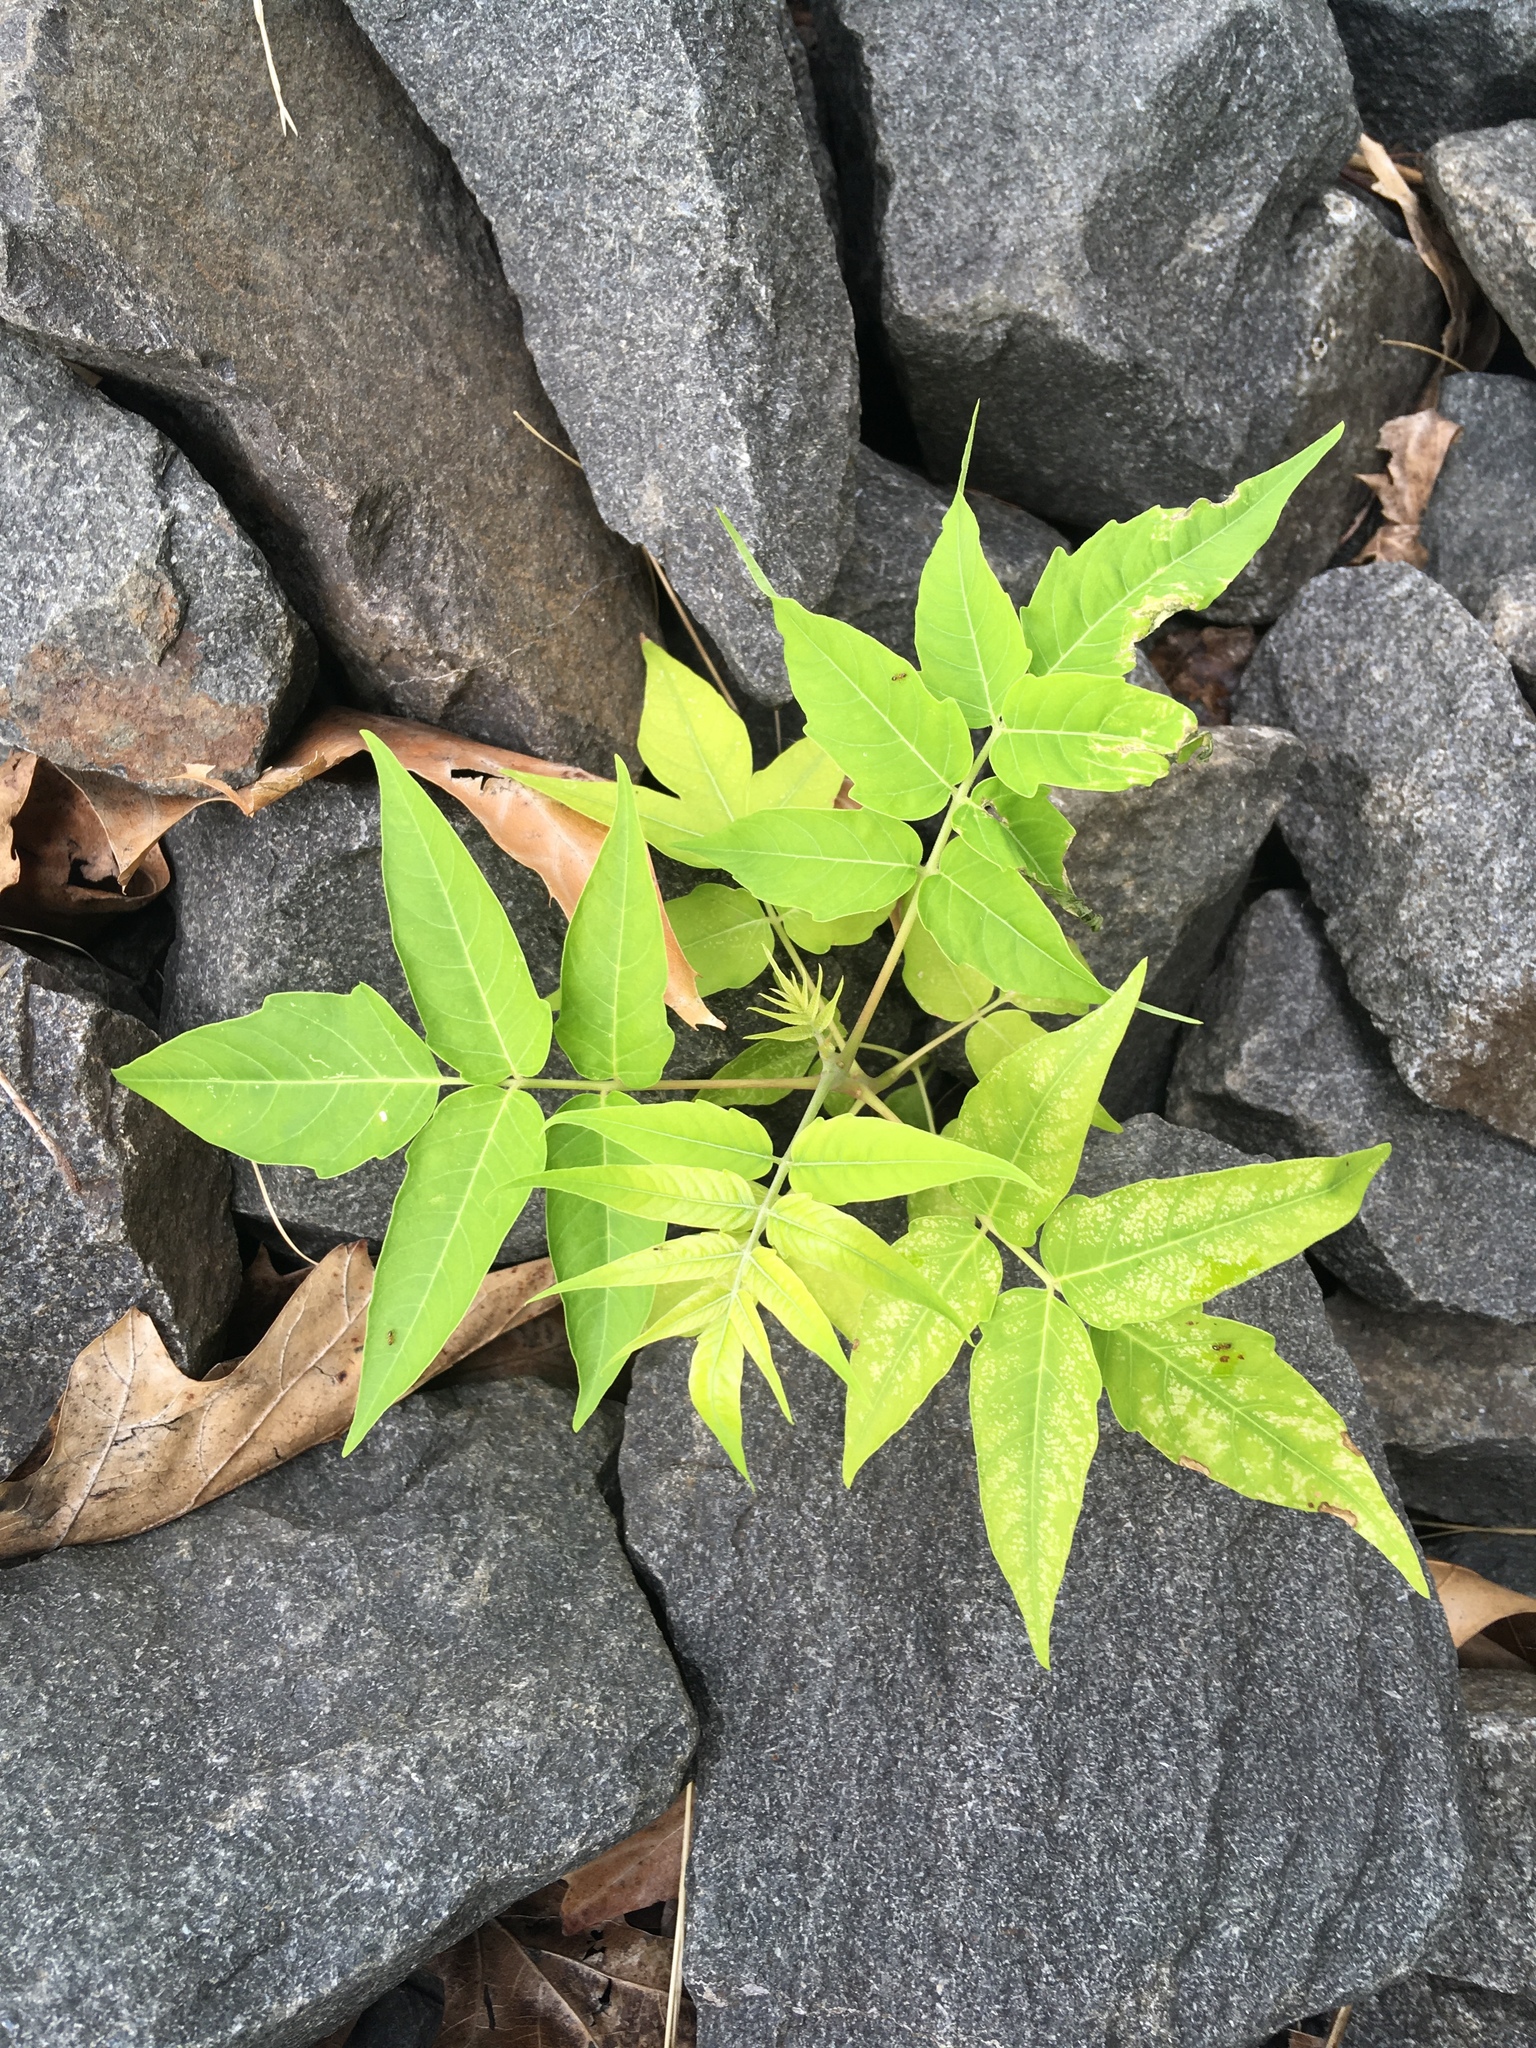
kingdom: Plantae
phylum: Tracheophyta
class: Magnoliopsida
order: Sapindales
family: Simaroubaceae
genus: Ailanthus
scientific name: Ailanthus altissima
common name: Tree-of-heaven
